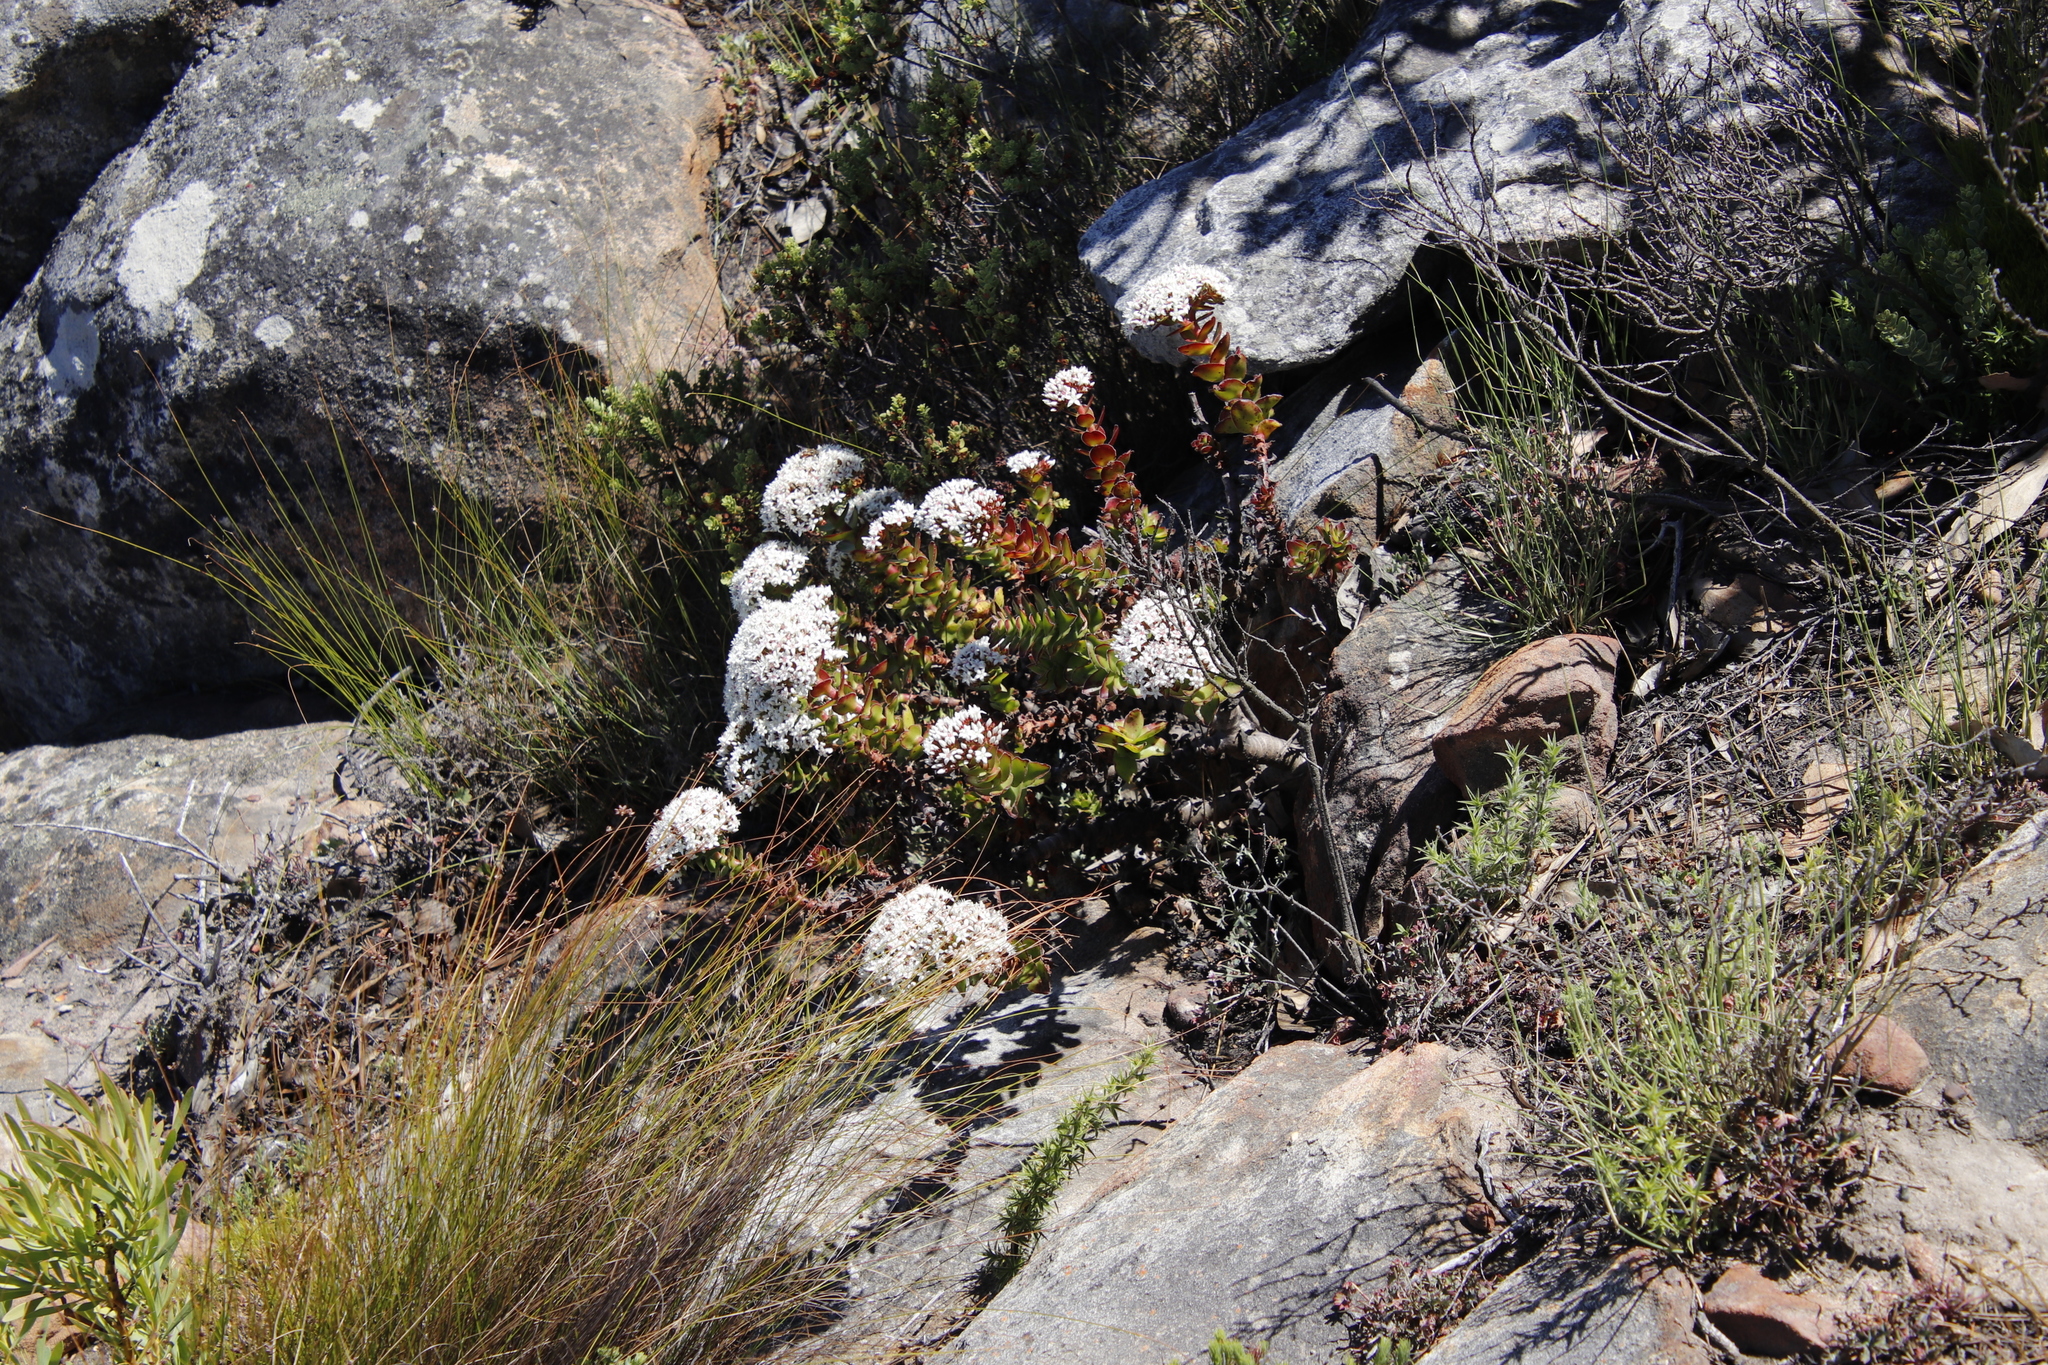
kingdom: Plantae
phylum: Tracheophyta
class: Magnoliopsida
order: Saxifragales
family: Crassulaceae
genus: Crassula
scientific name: Crassula undulata
